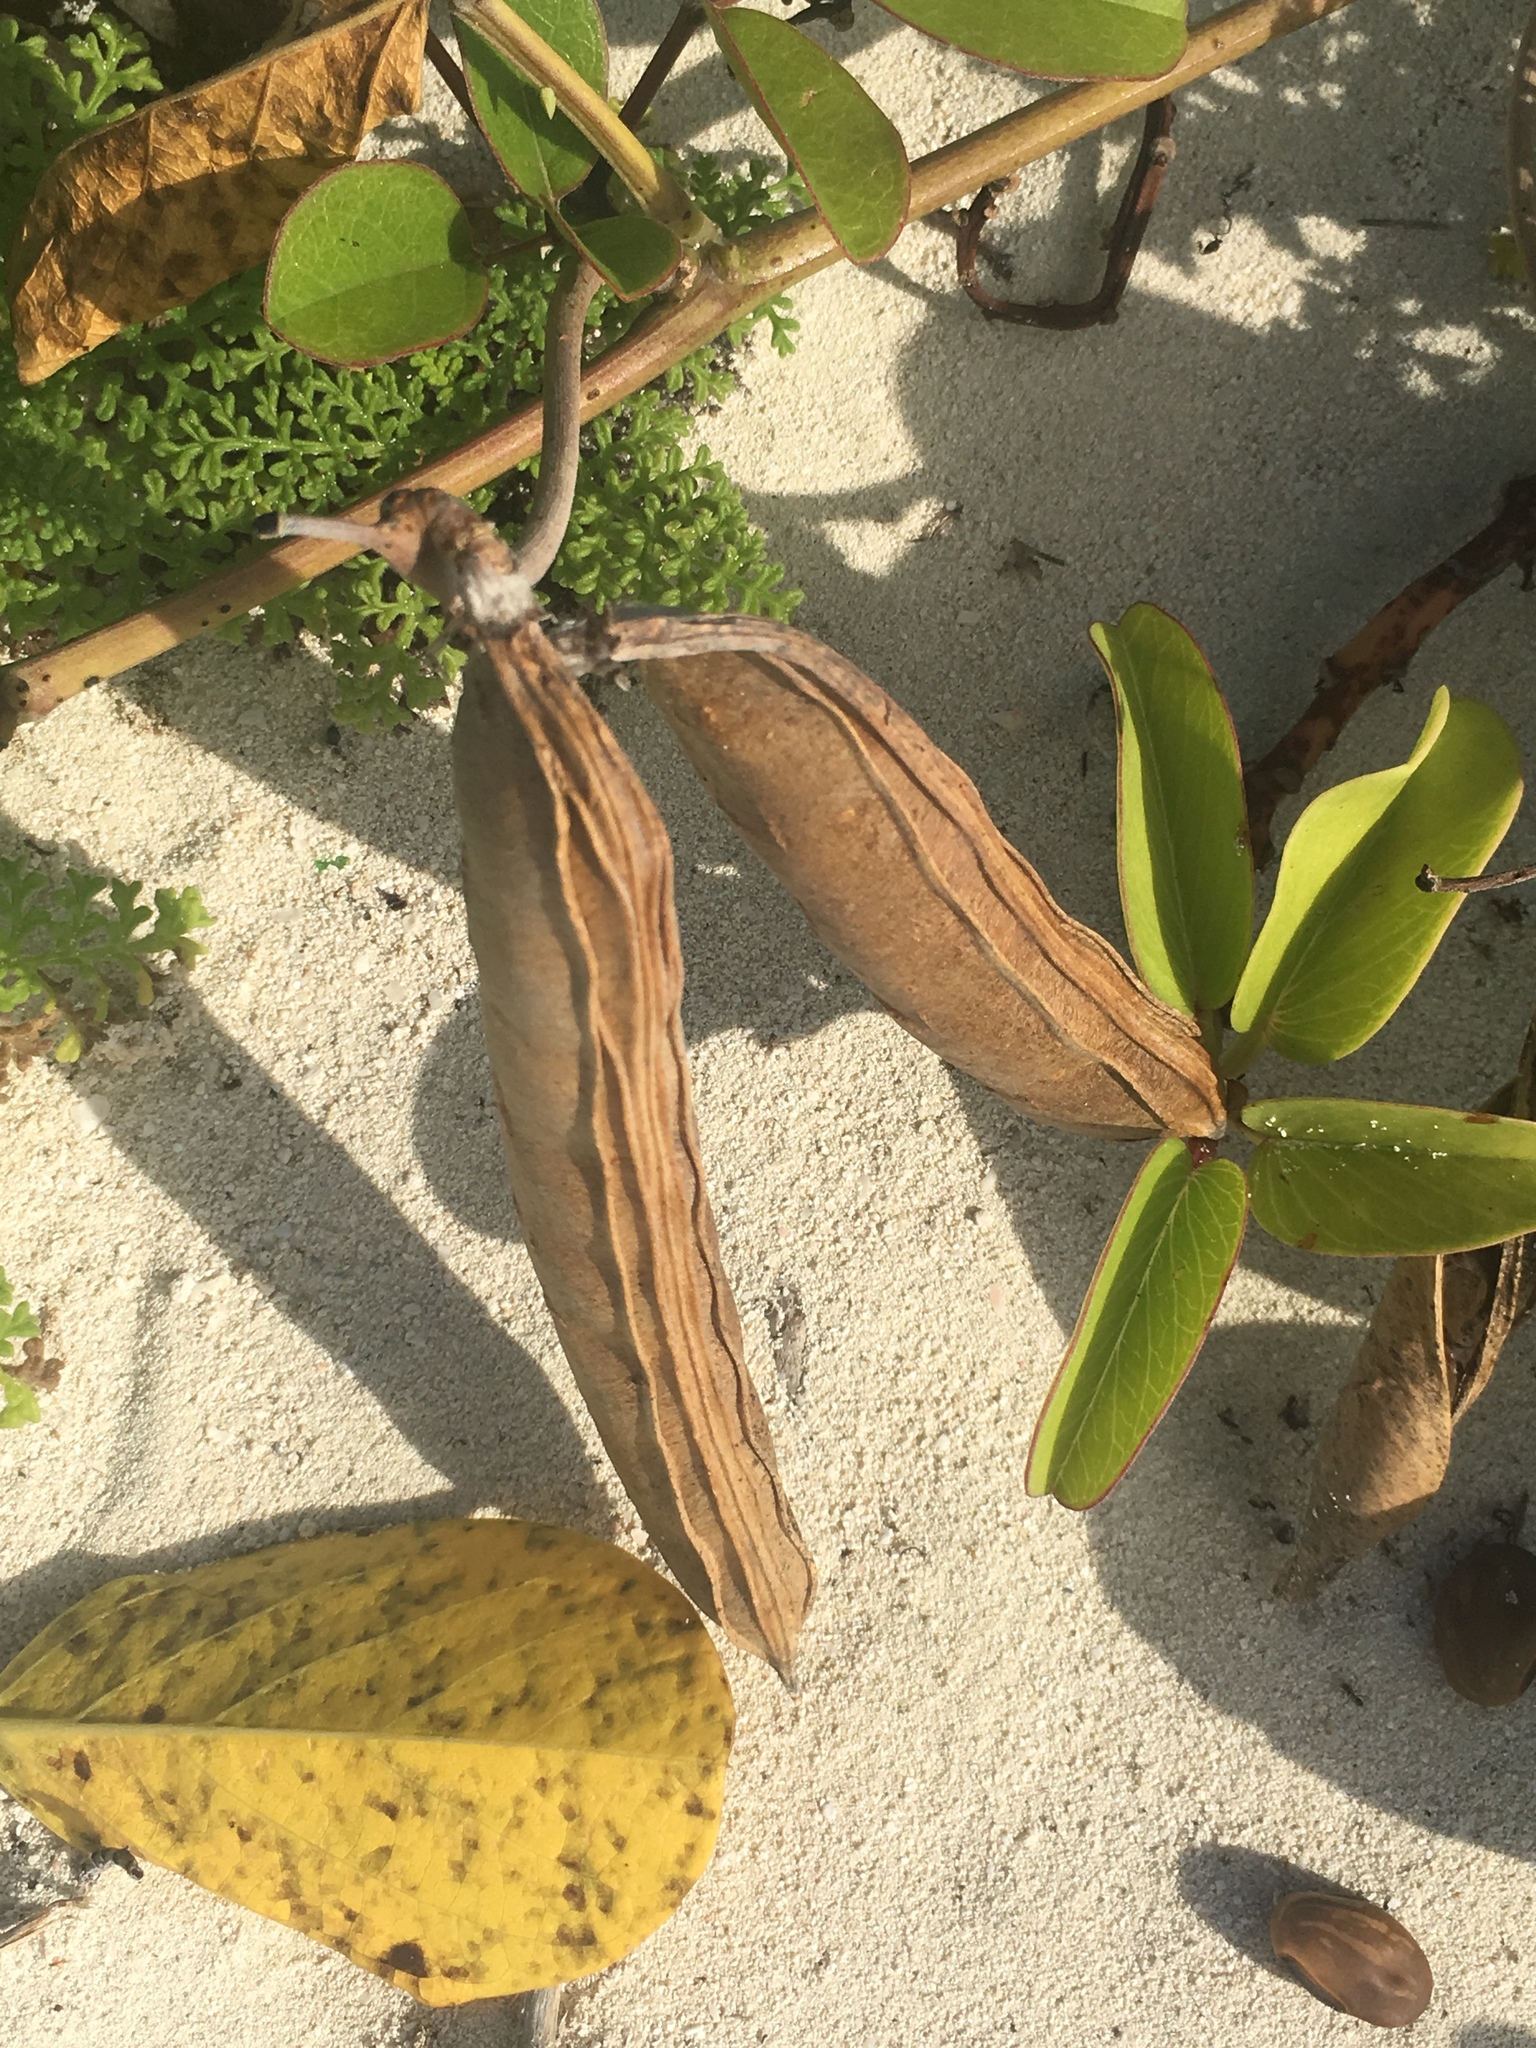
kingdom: Plantae
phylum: Tracheophyta
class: Magnoliopsida
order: Fabales
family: Fabaceae
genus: Canavalia
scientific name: Canavalia rosea
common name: Beach-bean
